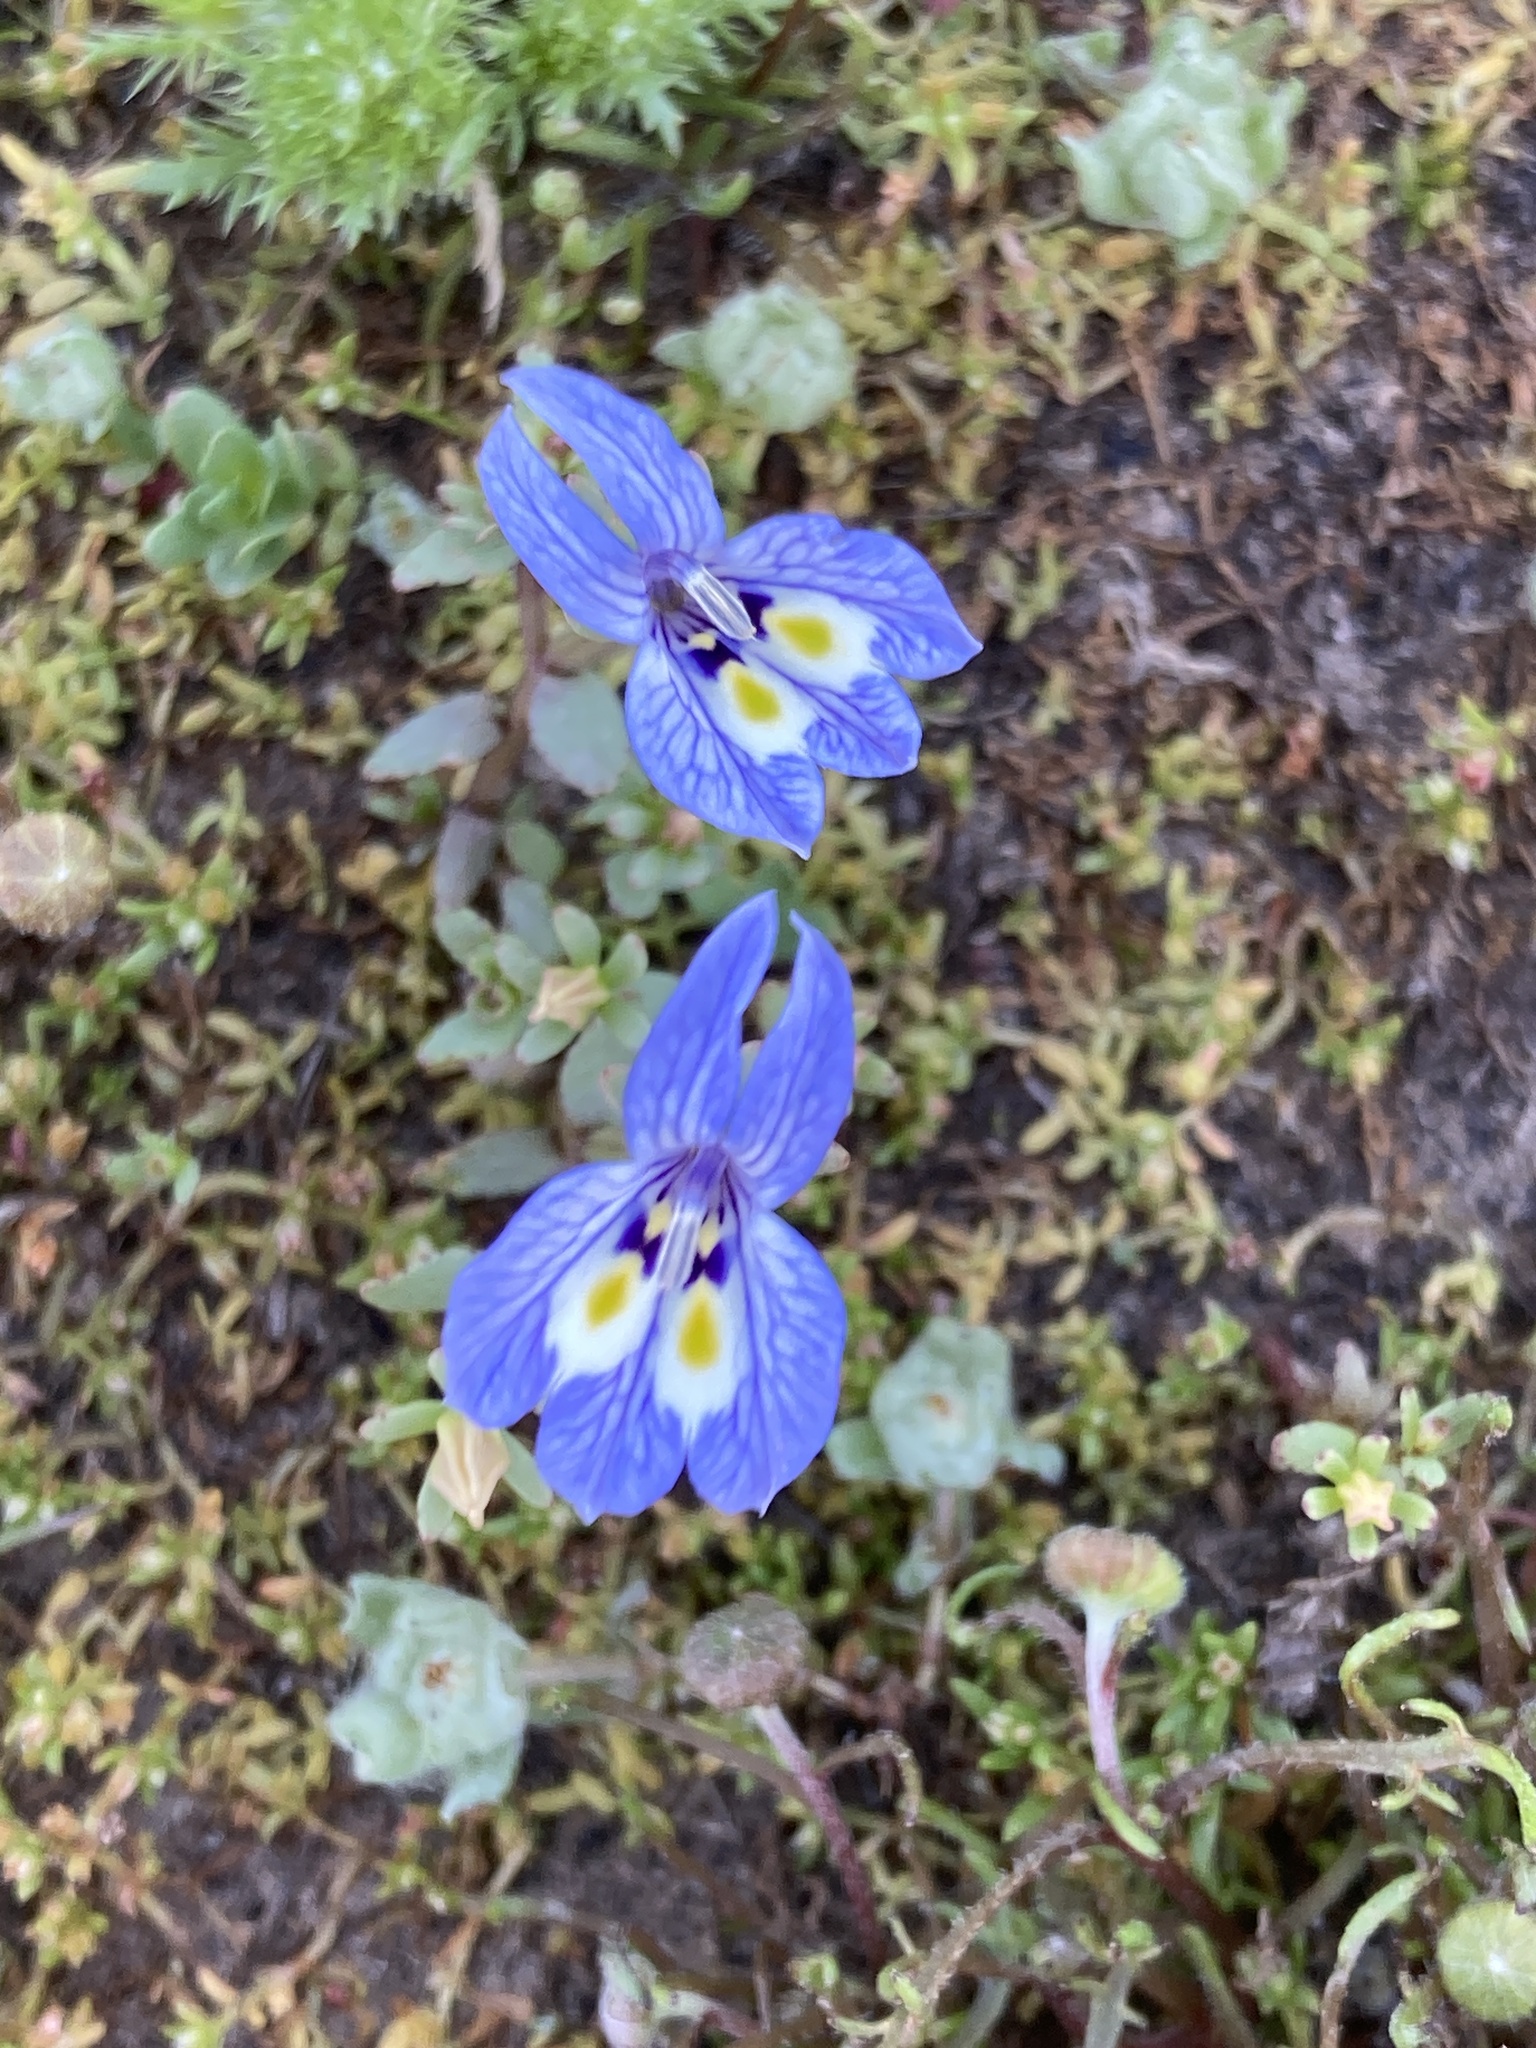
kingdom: Plantae
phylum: Tracheophyta
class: Magnoliopsida
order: Asterales
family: Campanulaceae
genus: Downingia
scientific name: Downingia insignis
